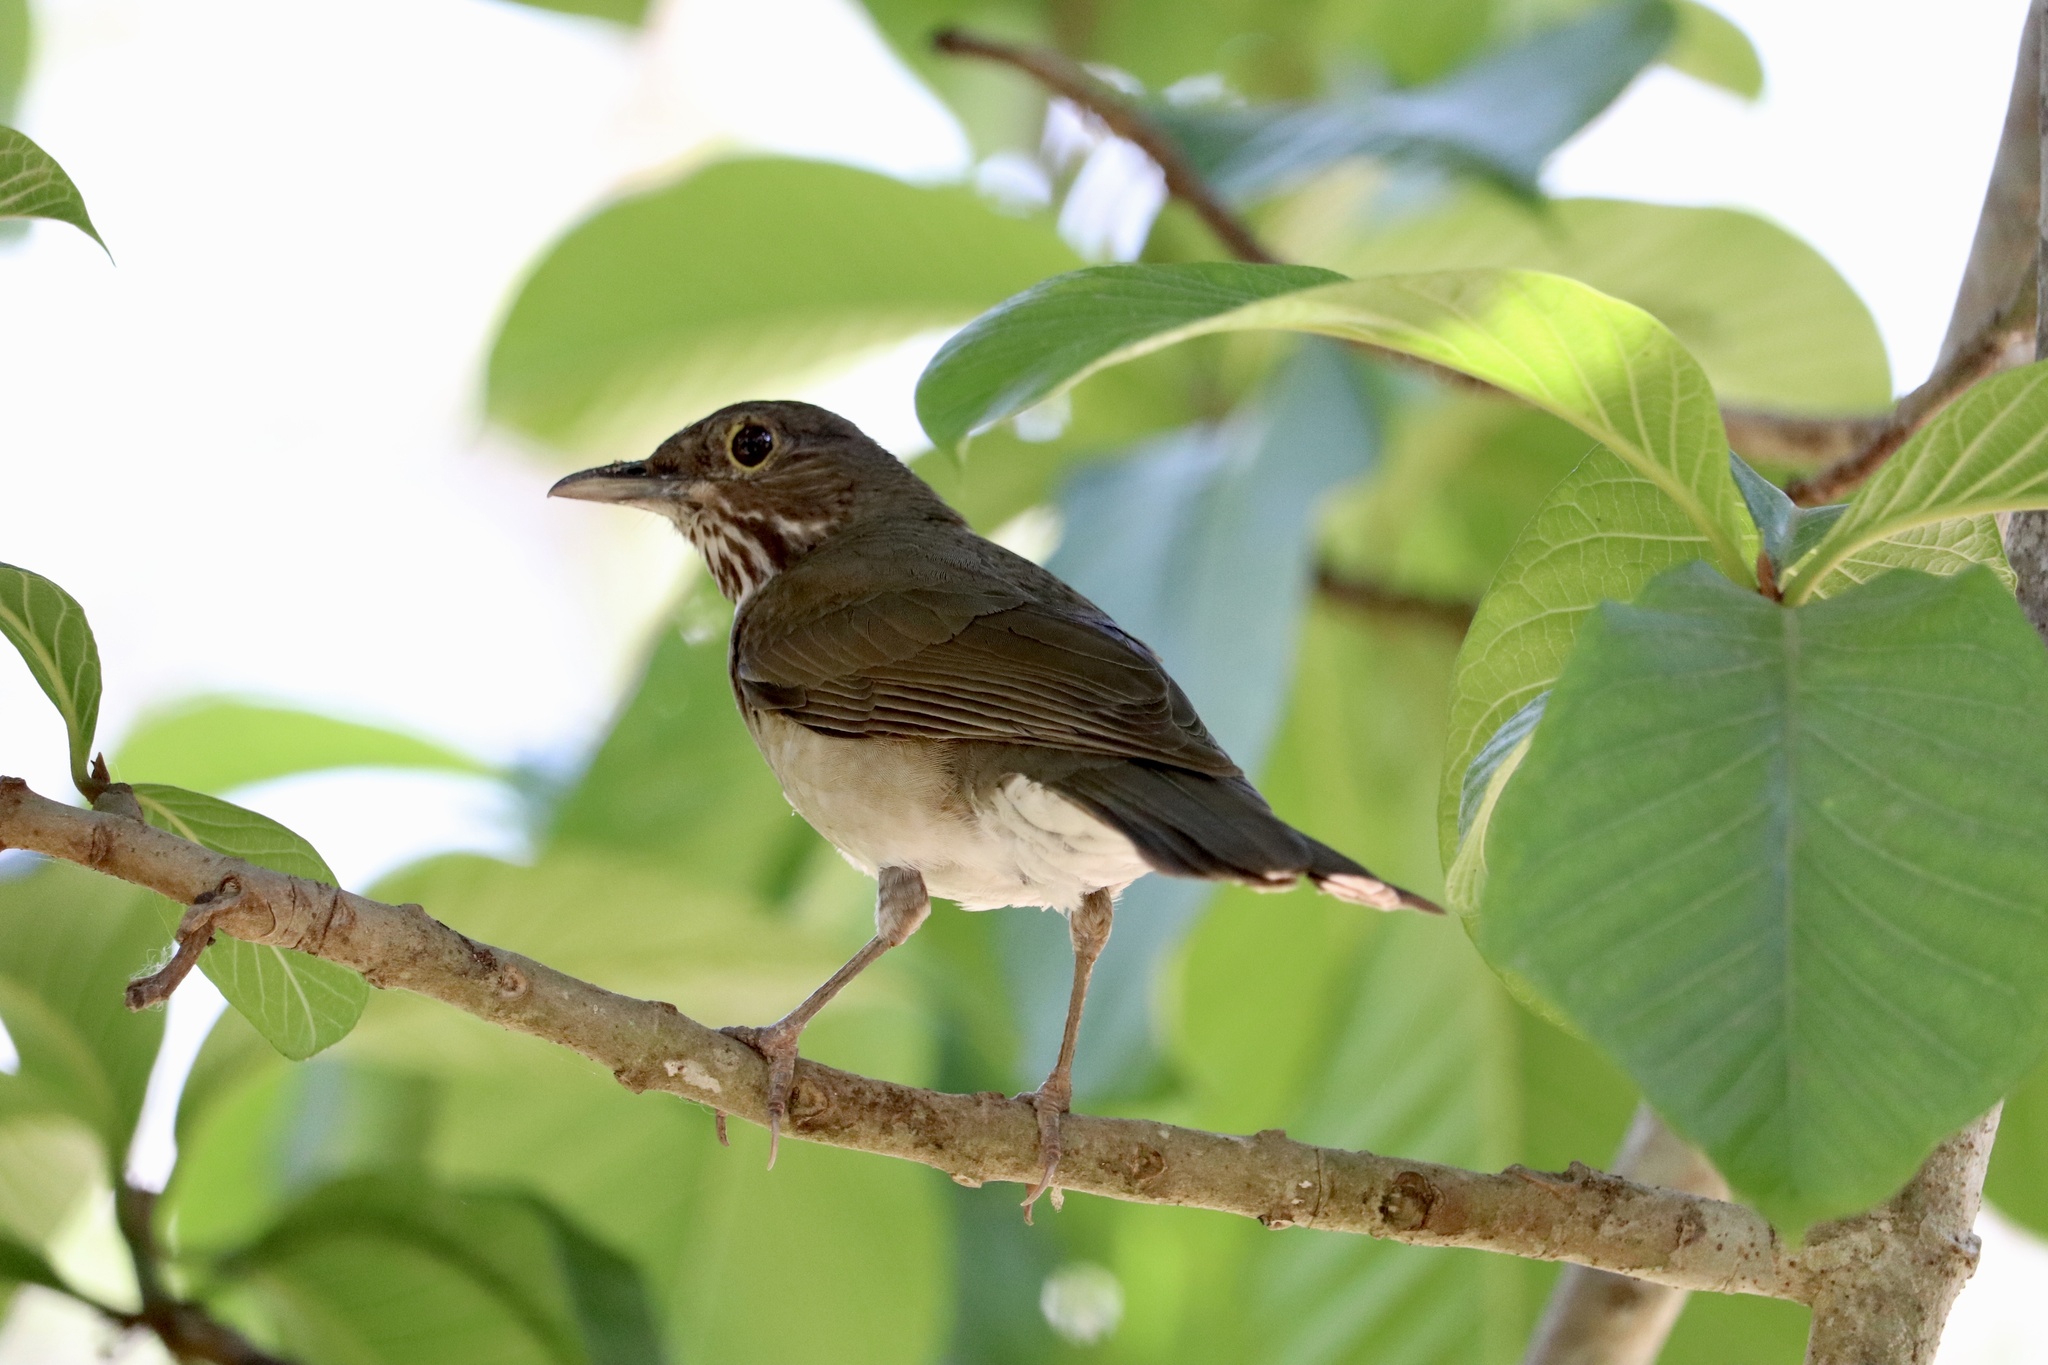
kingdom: Animalia
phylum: Chordata
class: Aves
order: Passeriformes
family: Turdidae
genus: Turdus
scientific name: Turdus assimilis
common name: White-throated thrush
